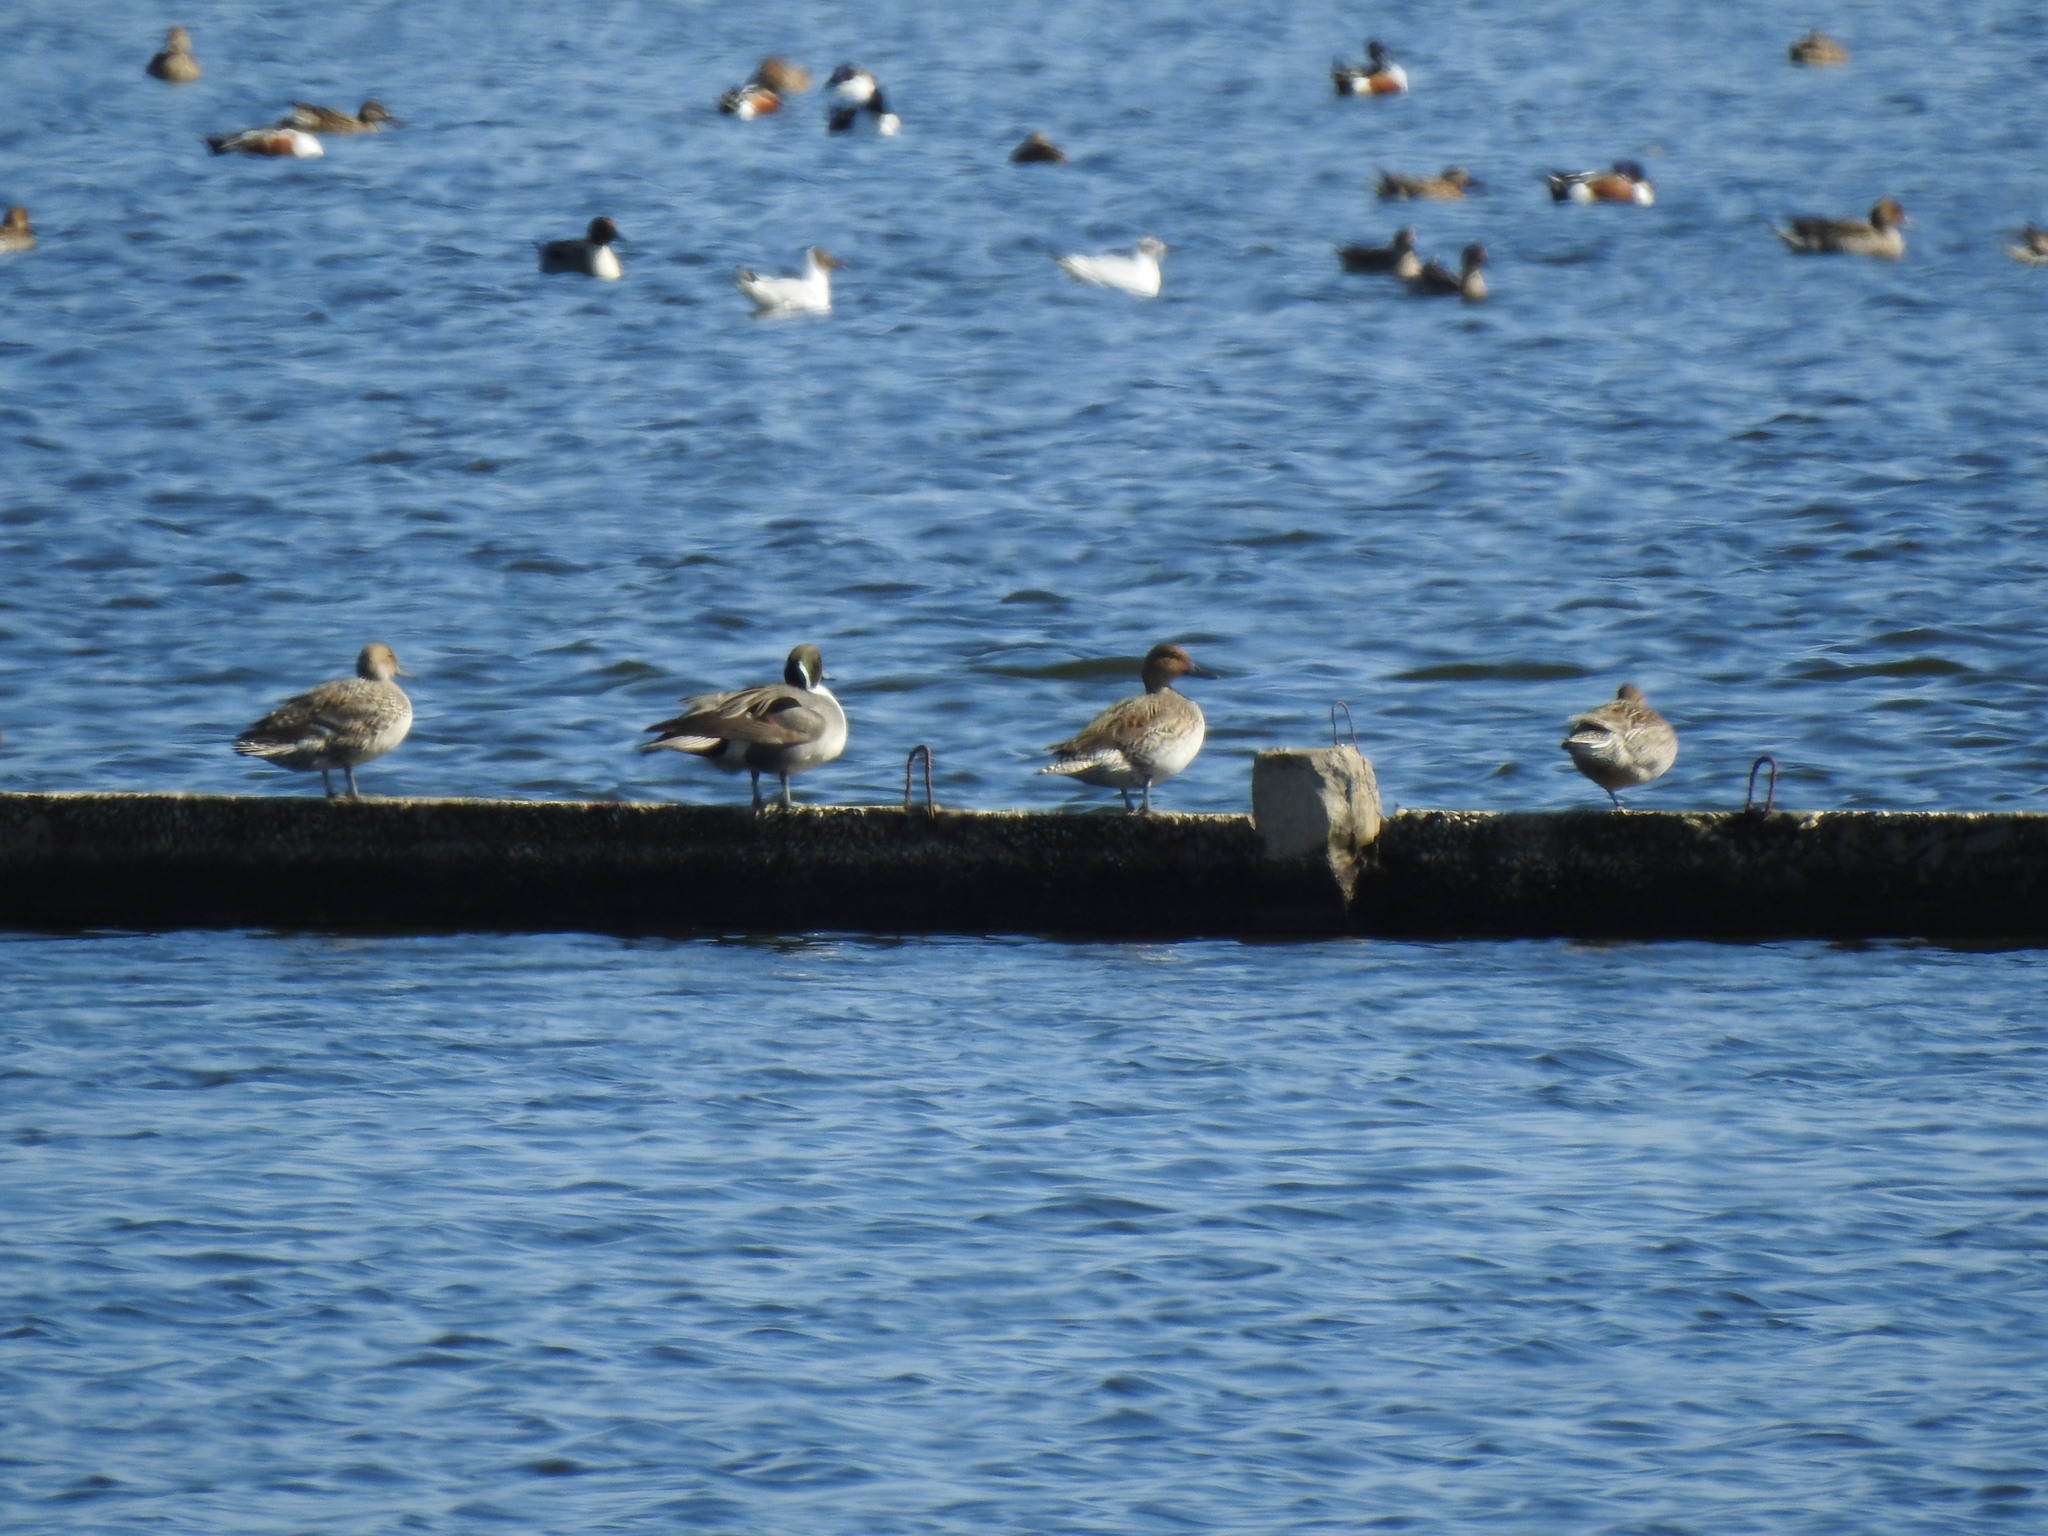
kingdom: Animalia
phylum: Chordata
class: Aves
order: Anseriformes
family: Anatidae
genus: Anas
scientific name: Anas acuta
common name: Northern pintail
